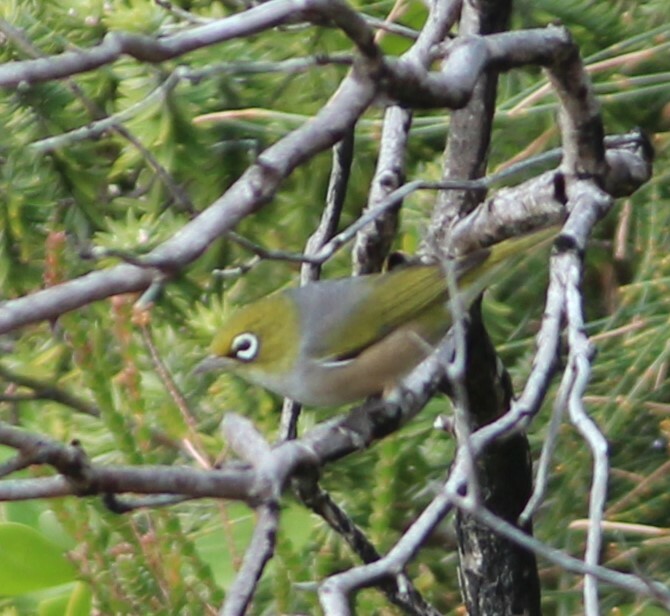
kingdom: Animalia
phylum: Chordata
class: Aves
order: Passeriformes
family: Zosteropidae
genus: Zosterops
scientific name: Zosterops lateralis
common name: Silvereye
